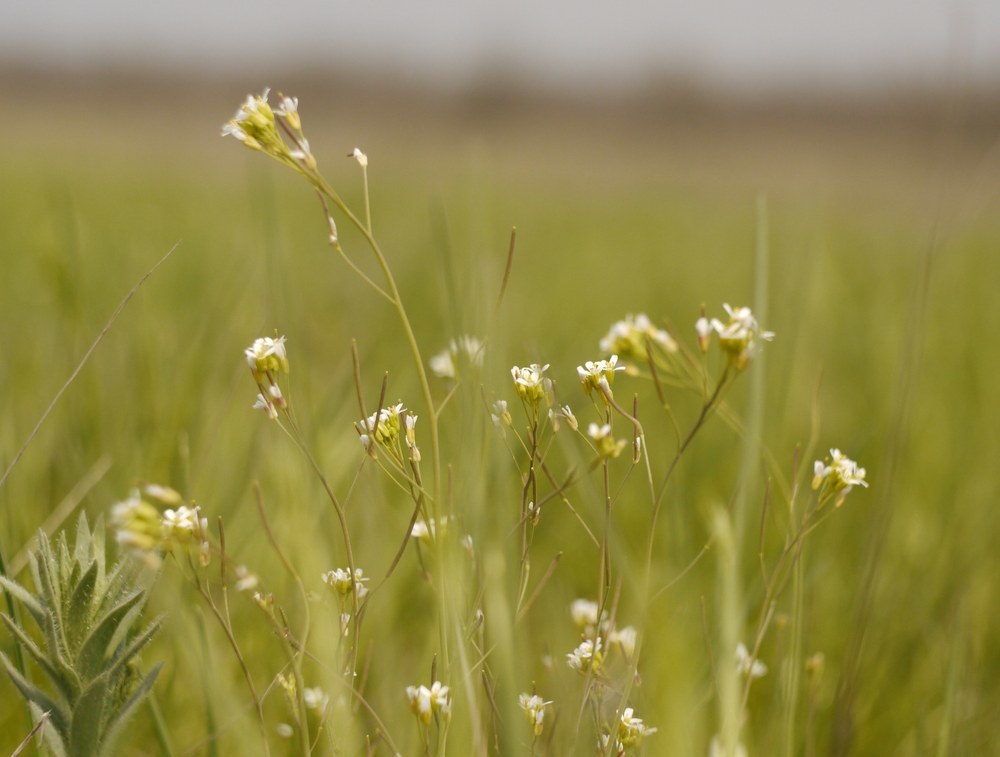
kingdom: Plantae
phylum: Tracheophyta
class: Magnoliopsida
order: Brassicales
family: Brassicaceae
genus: Arabidopsis
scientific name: Arabidopsis thaliana
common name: Thale cress
